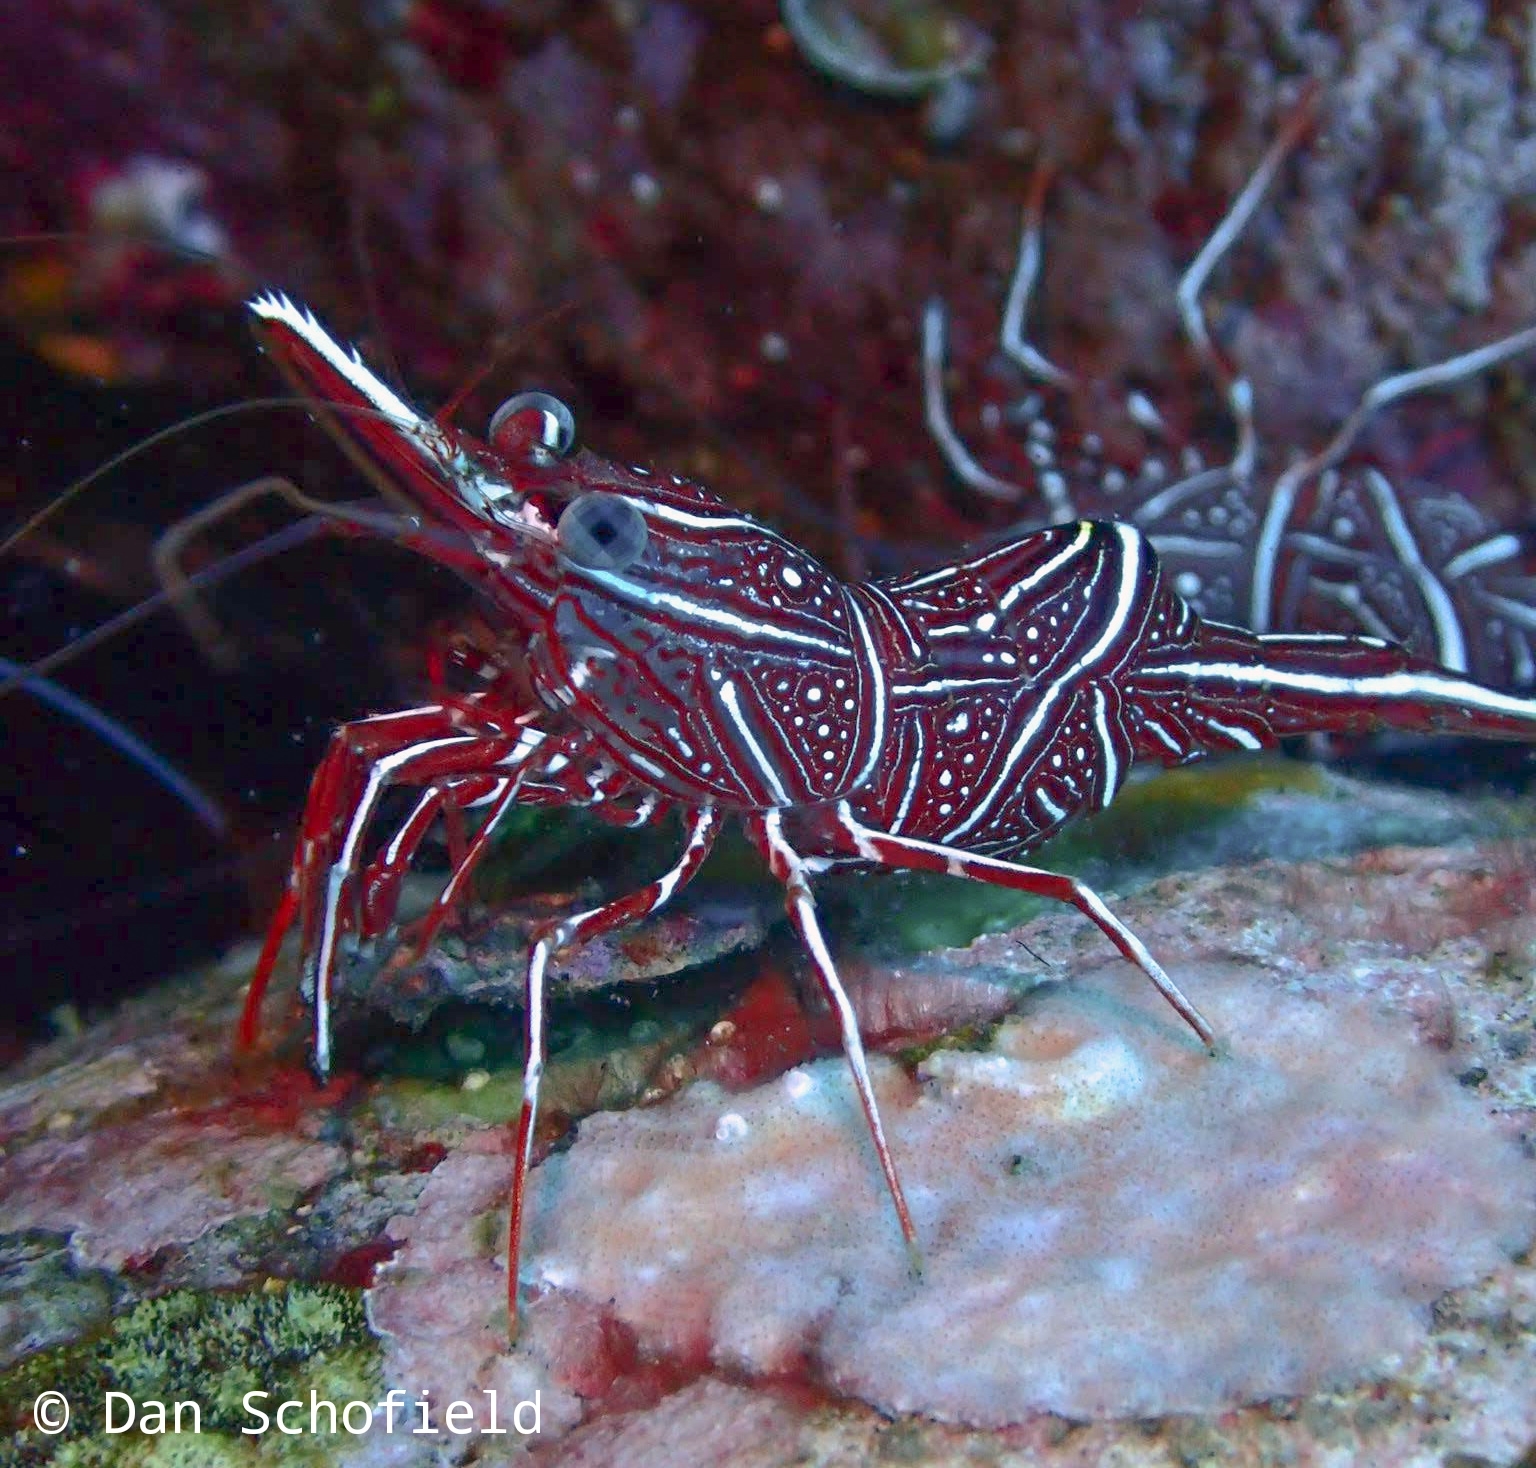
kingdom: Animalia
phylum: Arthropoda
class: Malacostraca
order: Decapoda
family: Rhynchocinetidae
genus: Rhynchocinetes
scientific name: Rhynchocinetes durbanensis
